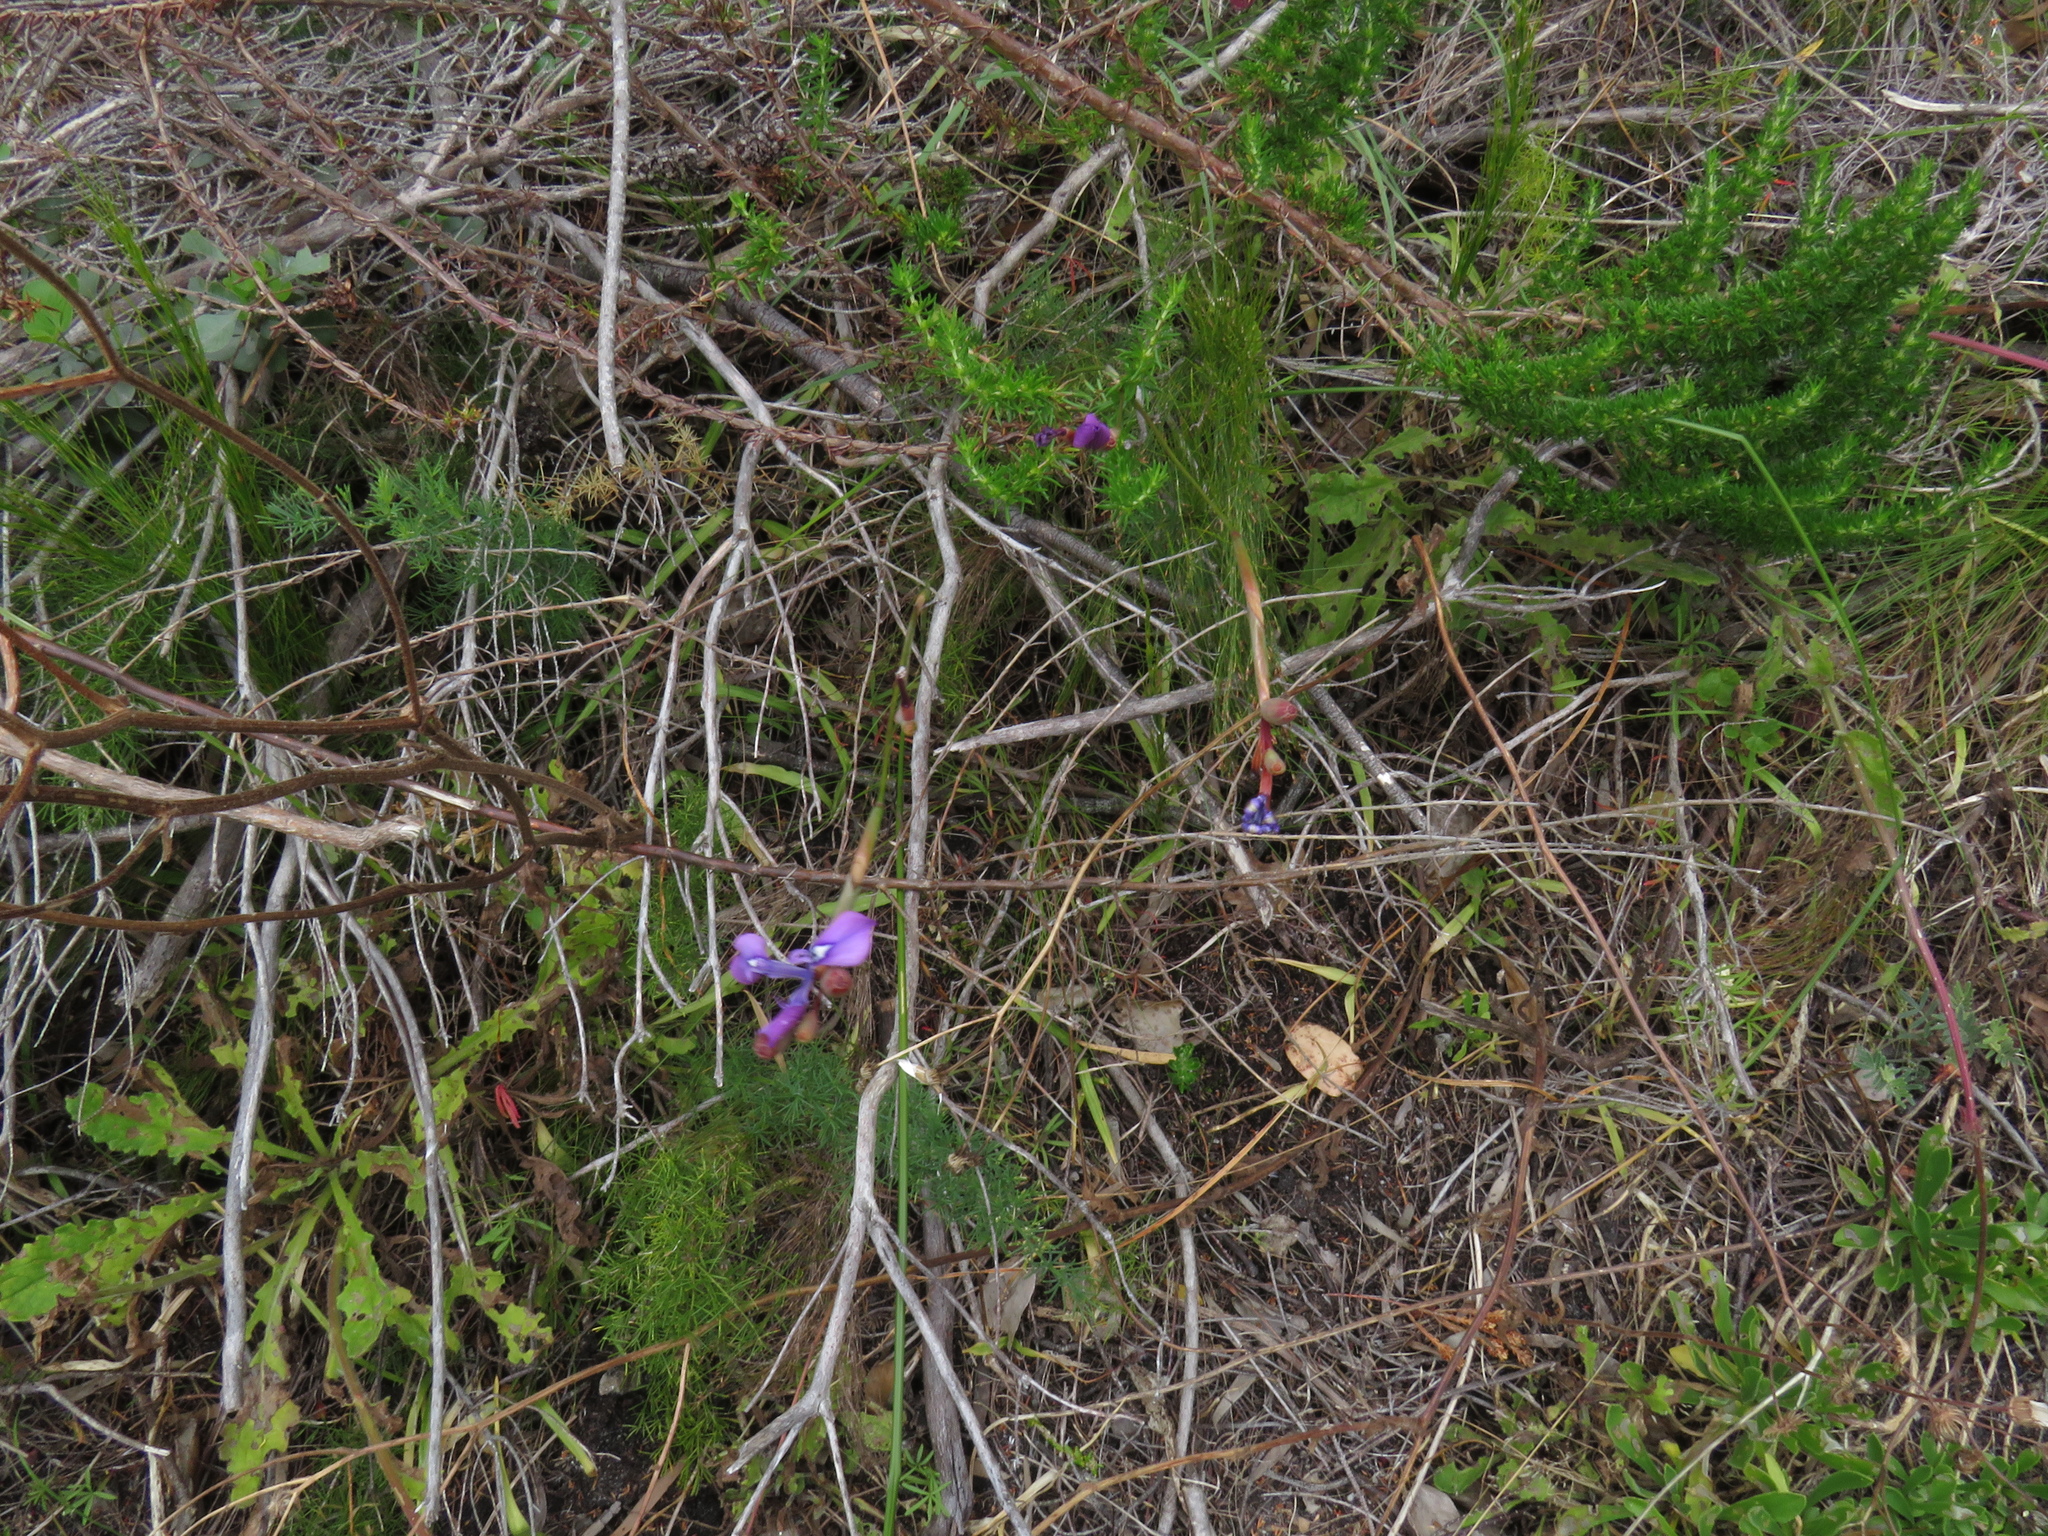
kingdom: Plantae
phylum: Tracheophyta
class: Liliopsida
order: Asparagales
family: Iridaceae
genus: Moraea
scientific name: Moraea tripetala
